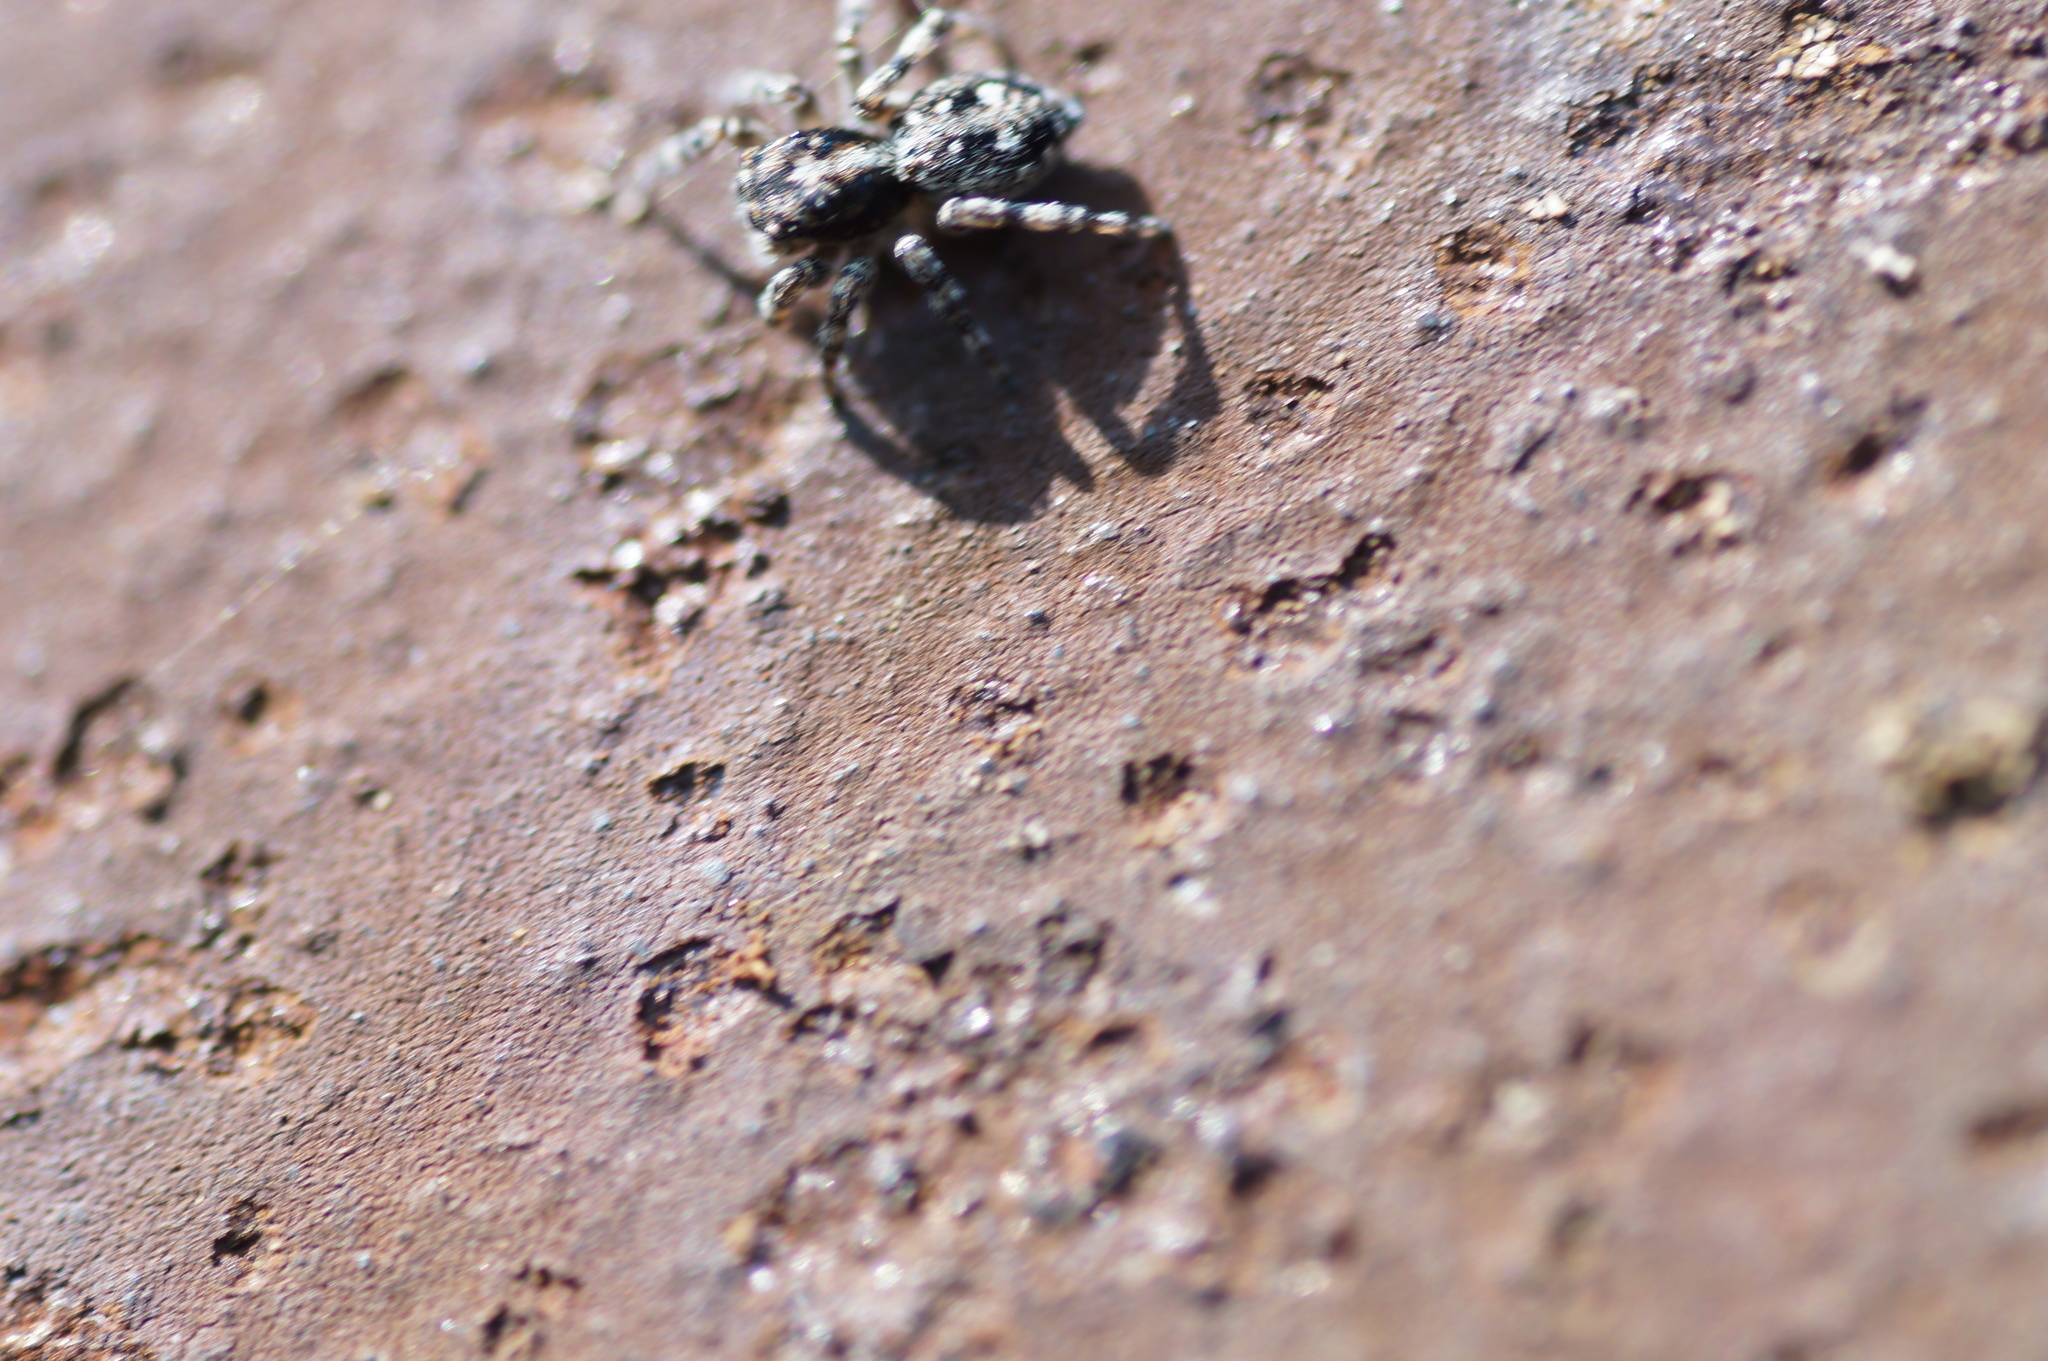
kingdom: Animalia
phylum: Arthropoda
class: Arachnida
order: Araneae
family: Salticidae
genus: Attulus
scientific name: Attulus terebratus
